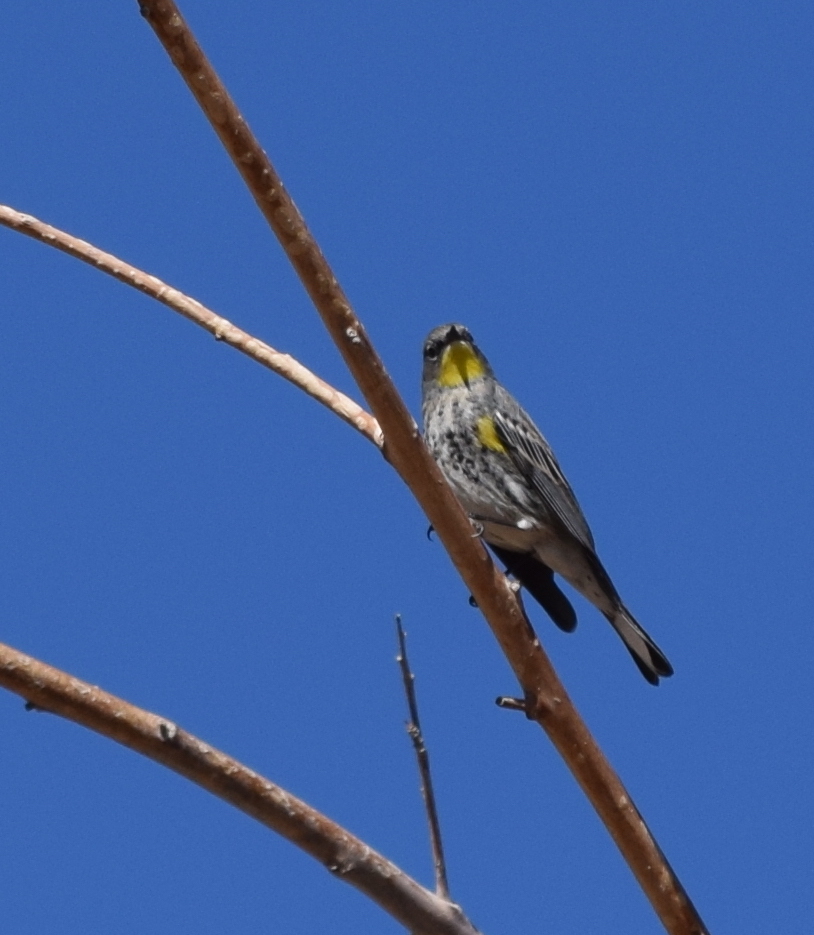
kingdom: Animalia
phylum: Chordata
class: Aves
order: Passeriformes
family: Parulidae
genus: Setophaga
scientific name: Setophaga auduboni
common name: Audubon's warbler
